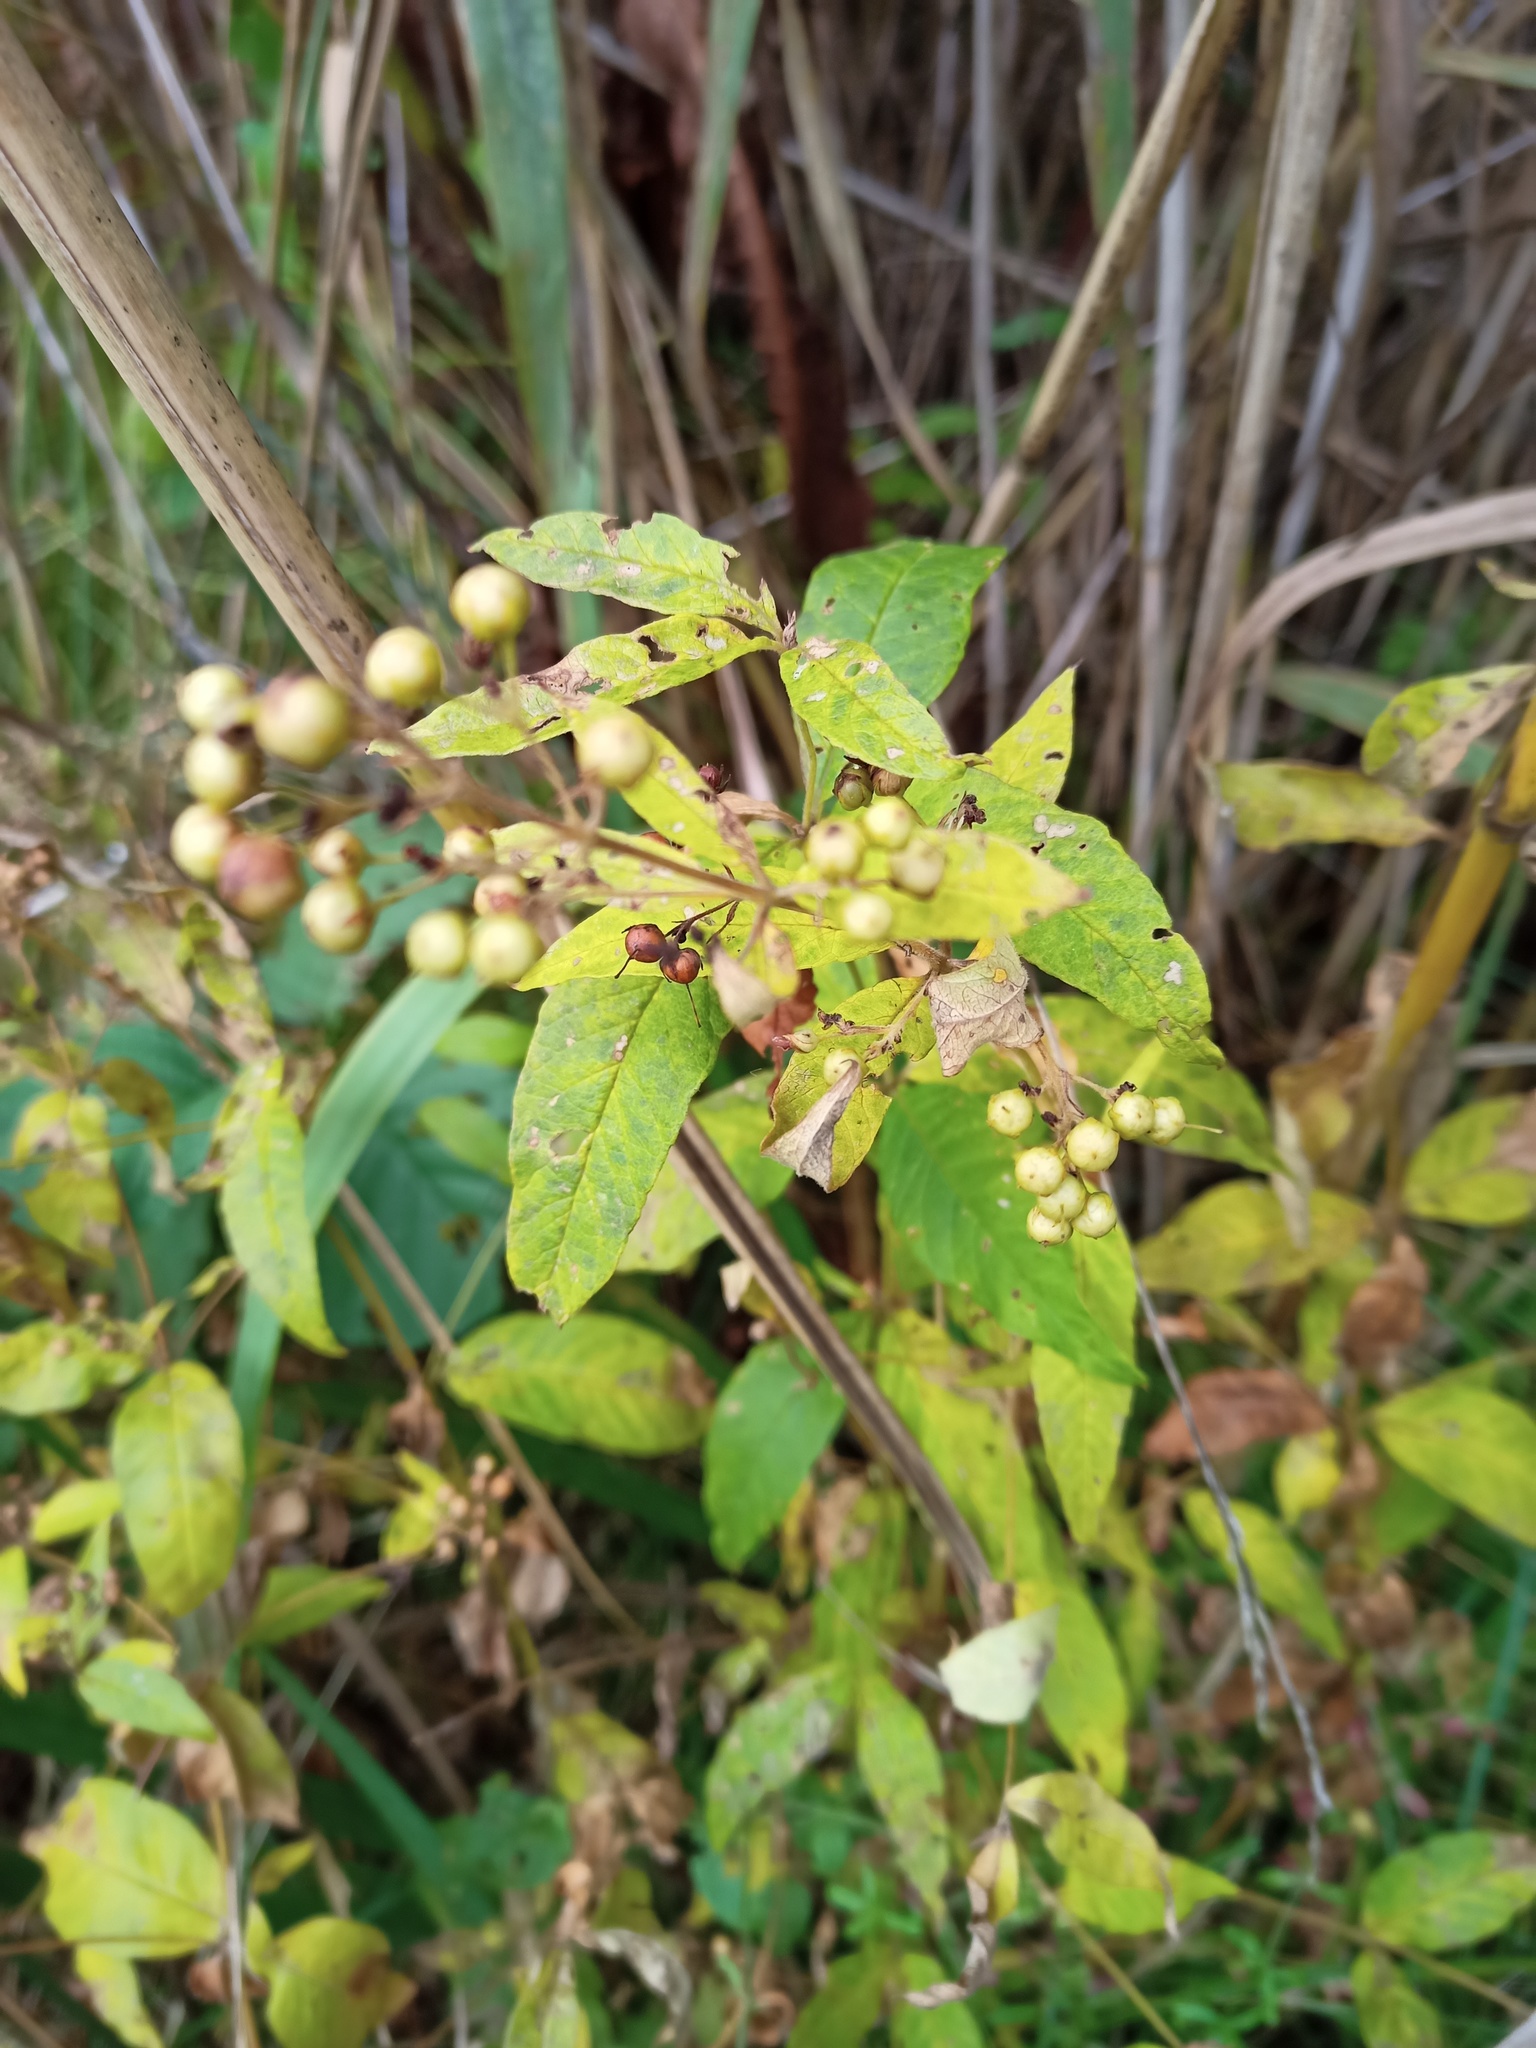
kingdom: Plantae
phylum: Tracheophyta
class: Magnoliopsida
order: Ericales
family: Primulaceae
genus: Lysimachia
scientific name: Lysimachia vulgaris
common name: Yellow loosestrife
